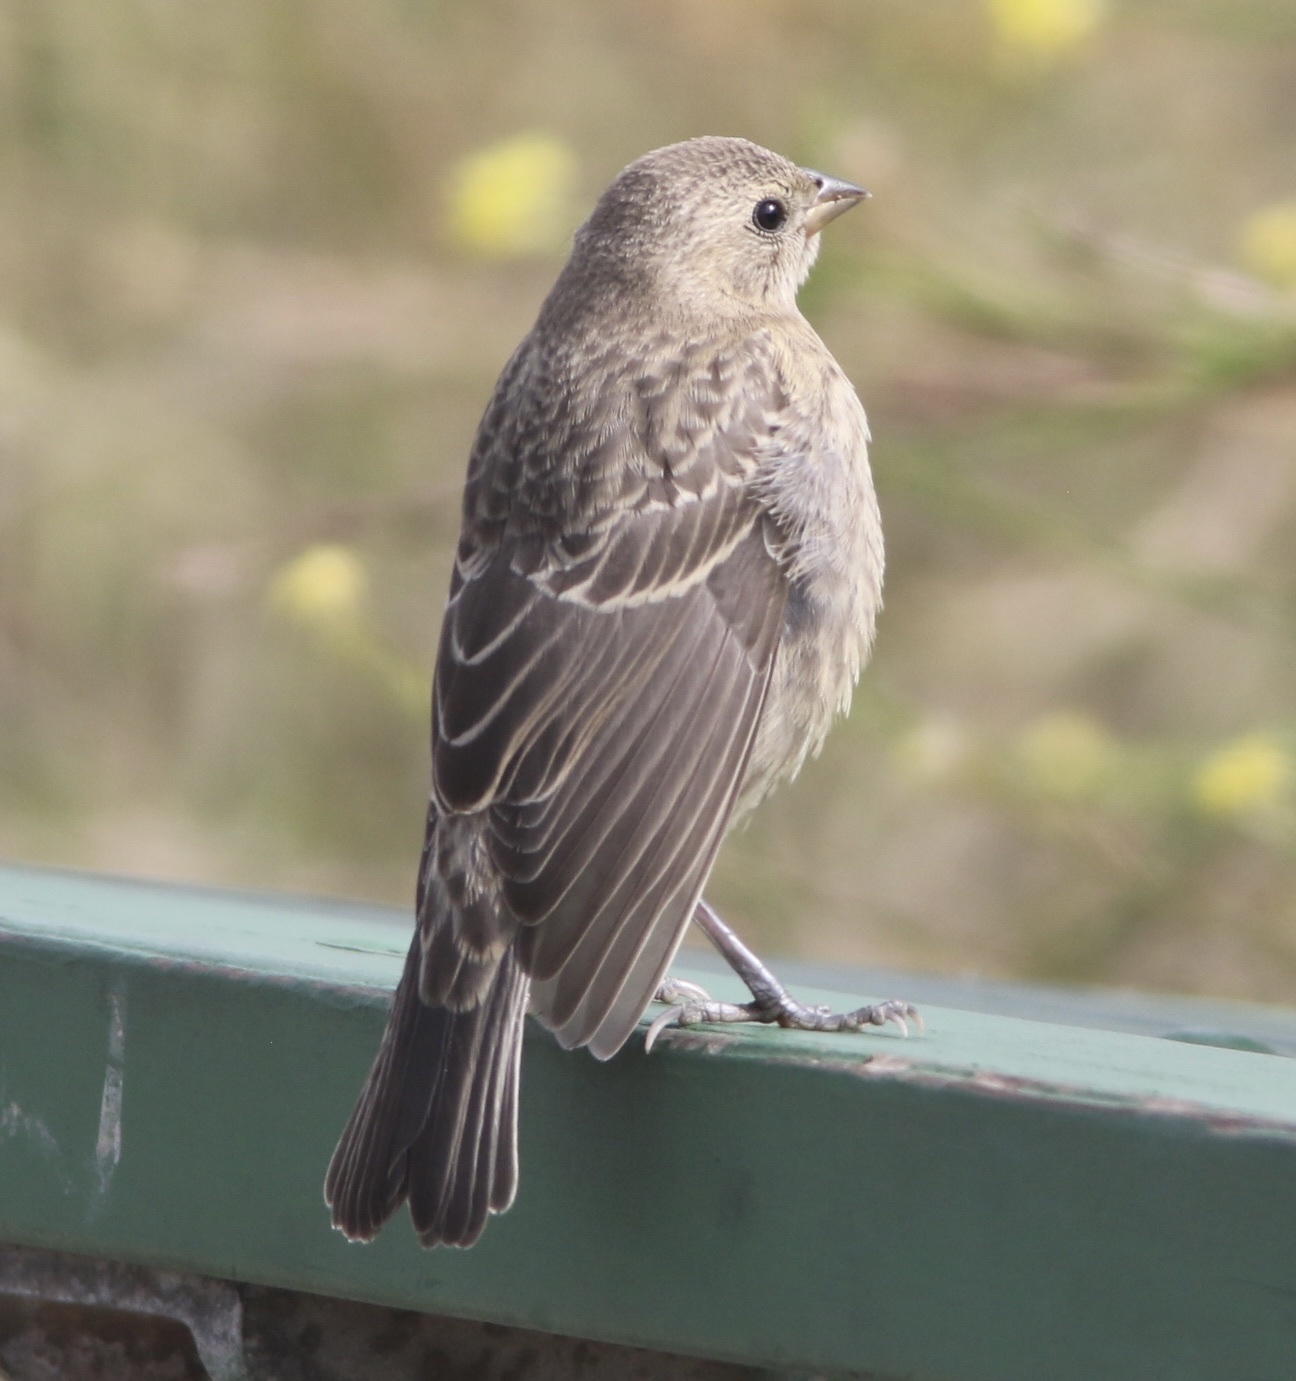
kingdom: Animalia
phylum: Chordata
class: Aves
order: Passeriformes
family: Icteridae
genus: Molothrus
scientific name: Molothrus ater
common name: Brown-headed cowbird
